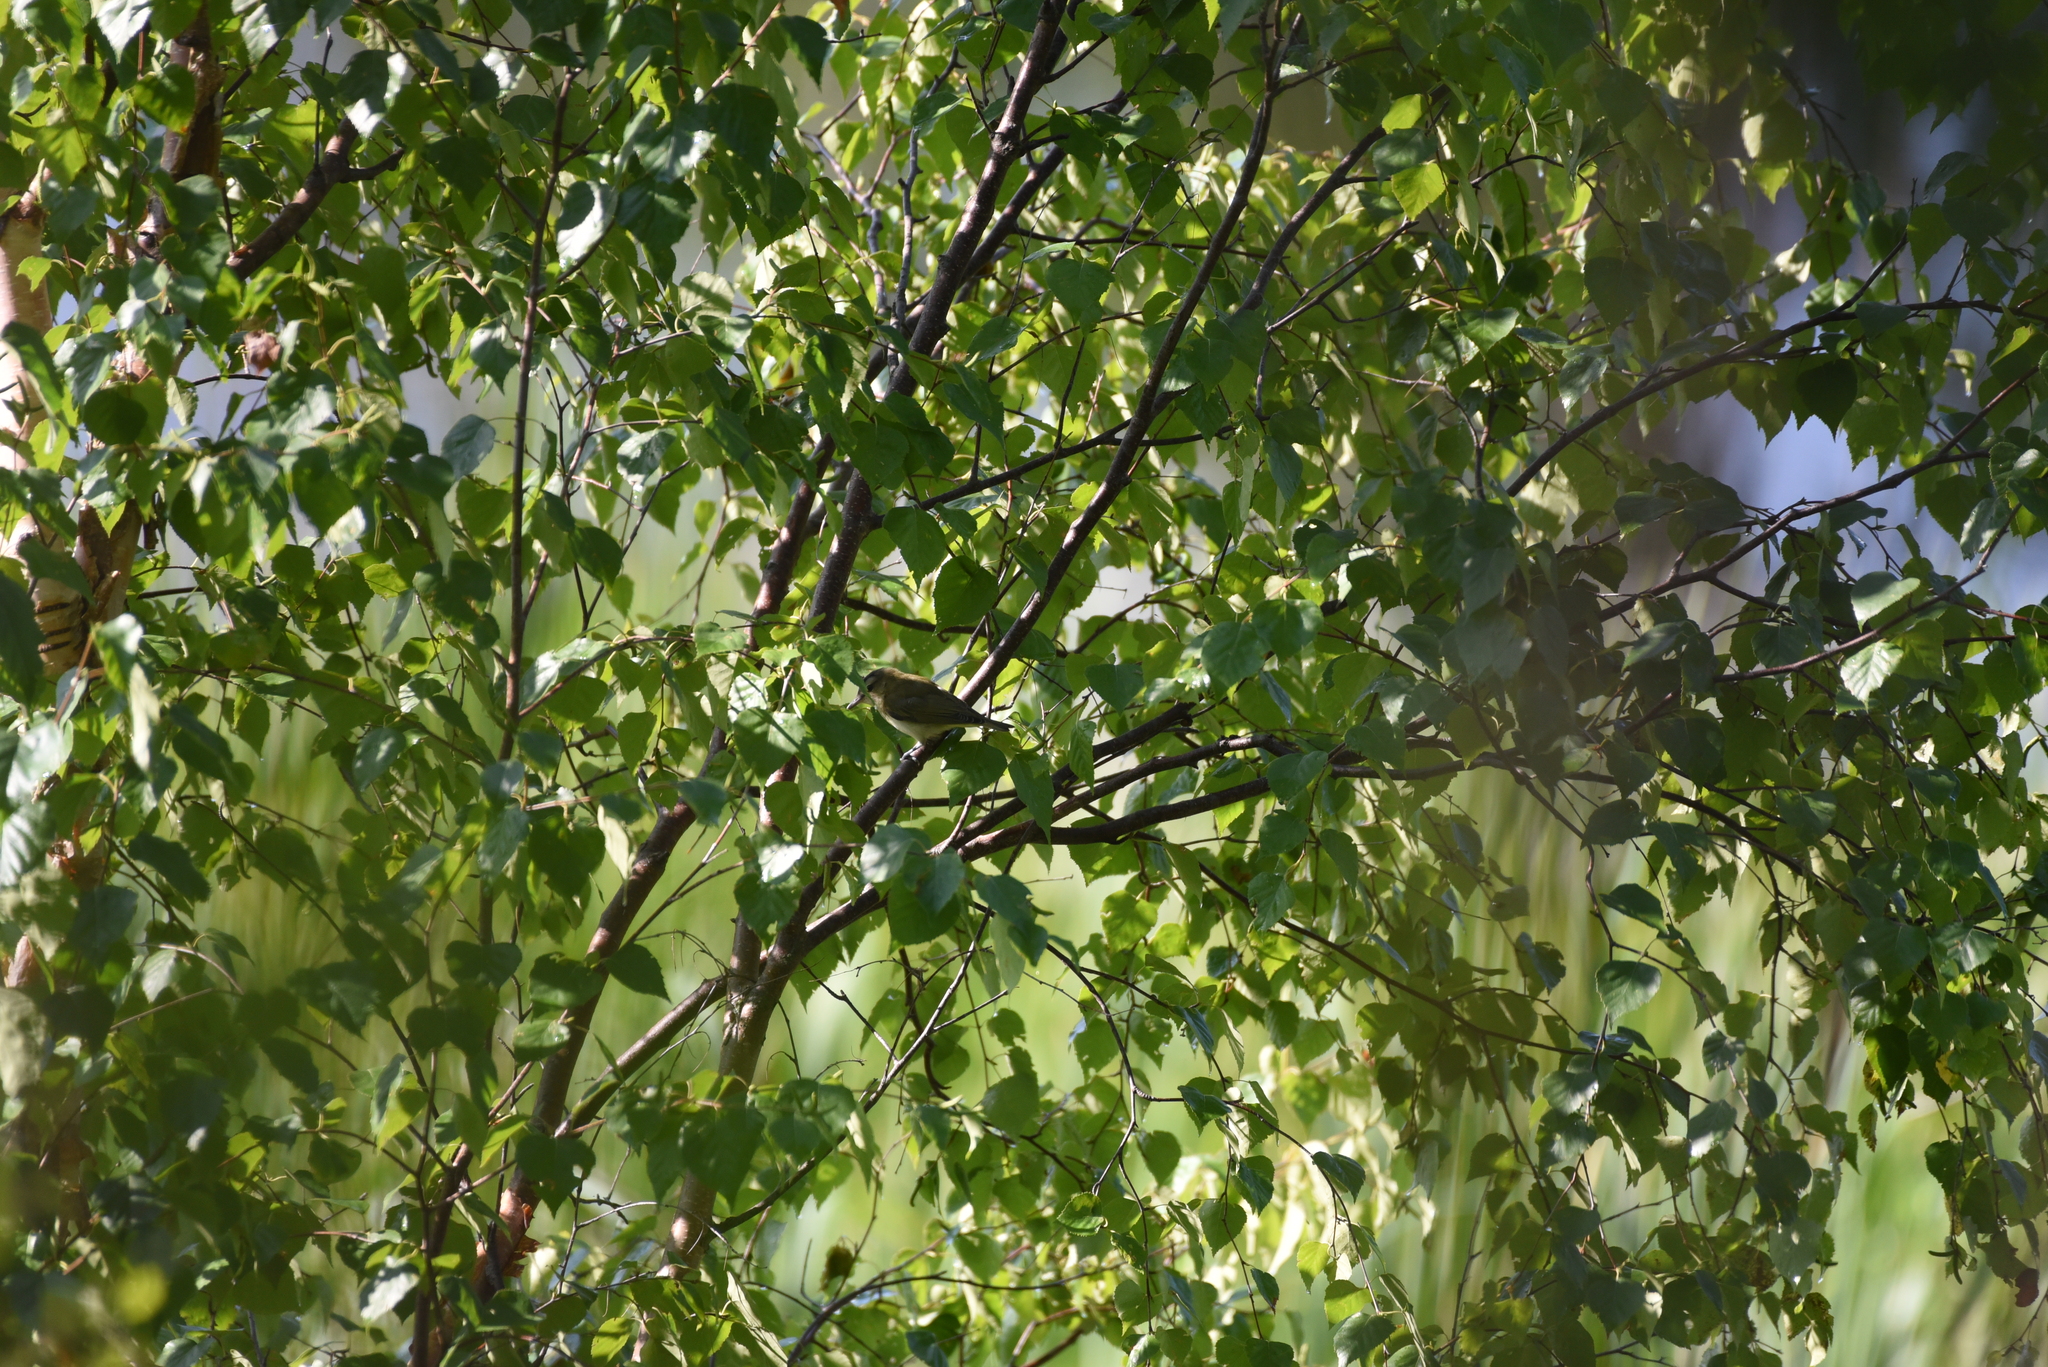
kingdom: Animalia
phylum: Chordata
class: Aves
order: Passeriformes
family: Vireonidae
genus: Vireo
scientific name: Vireo olivaceus
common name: Red-eyed vireo
